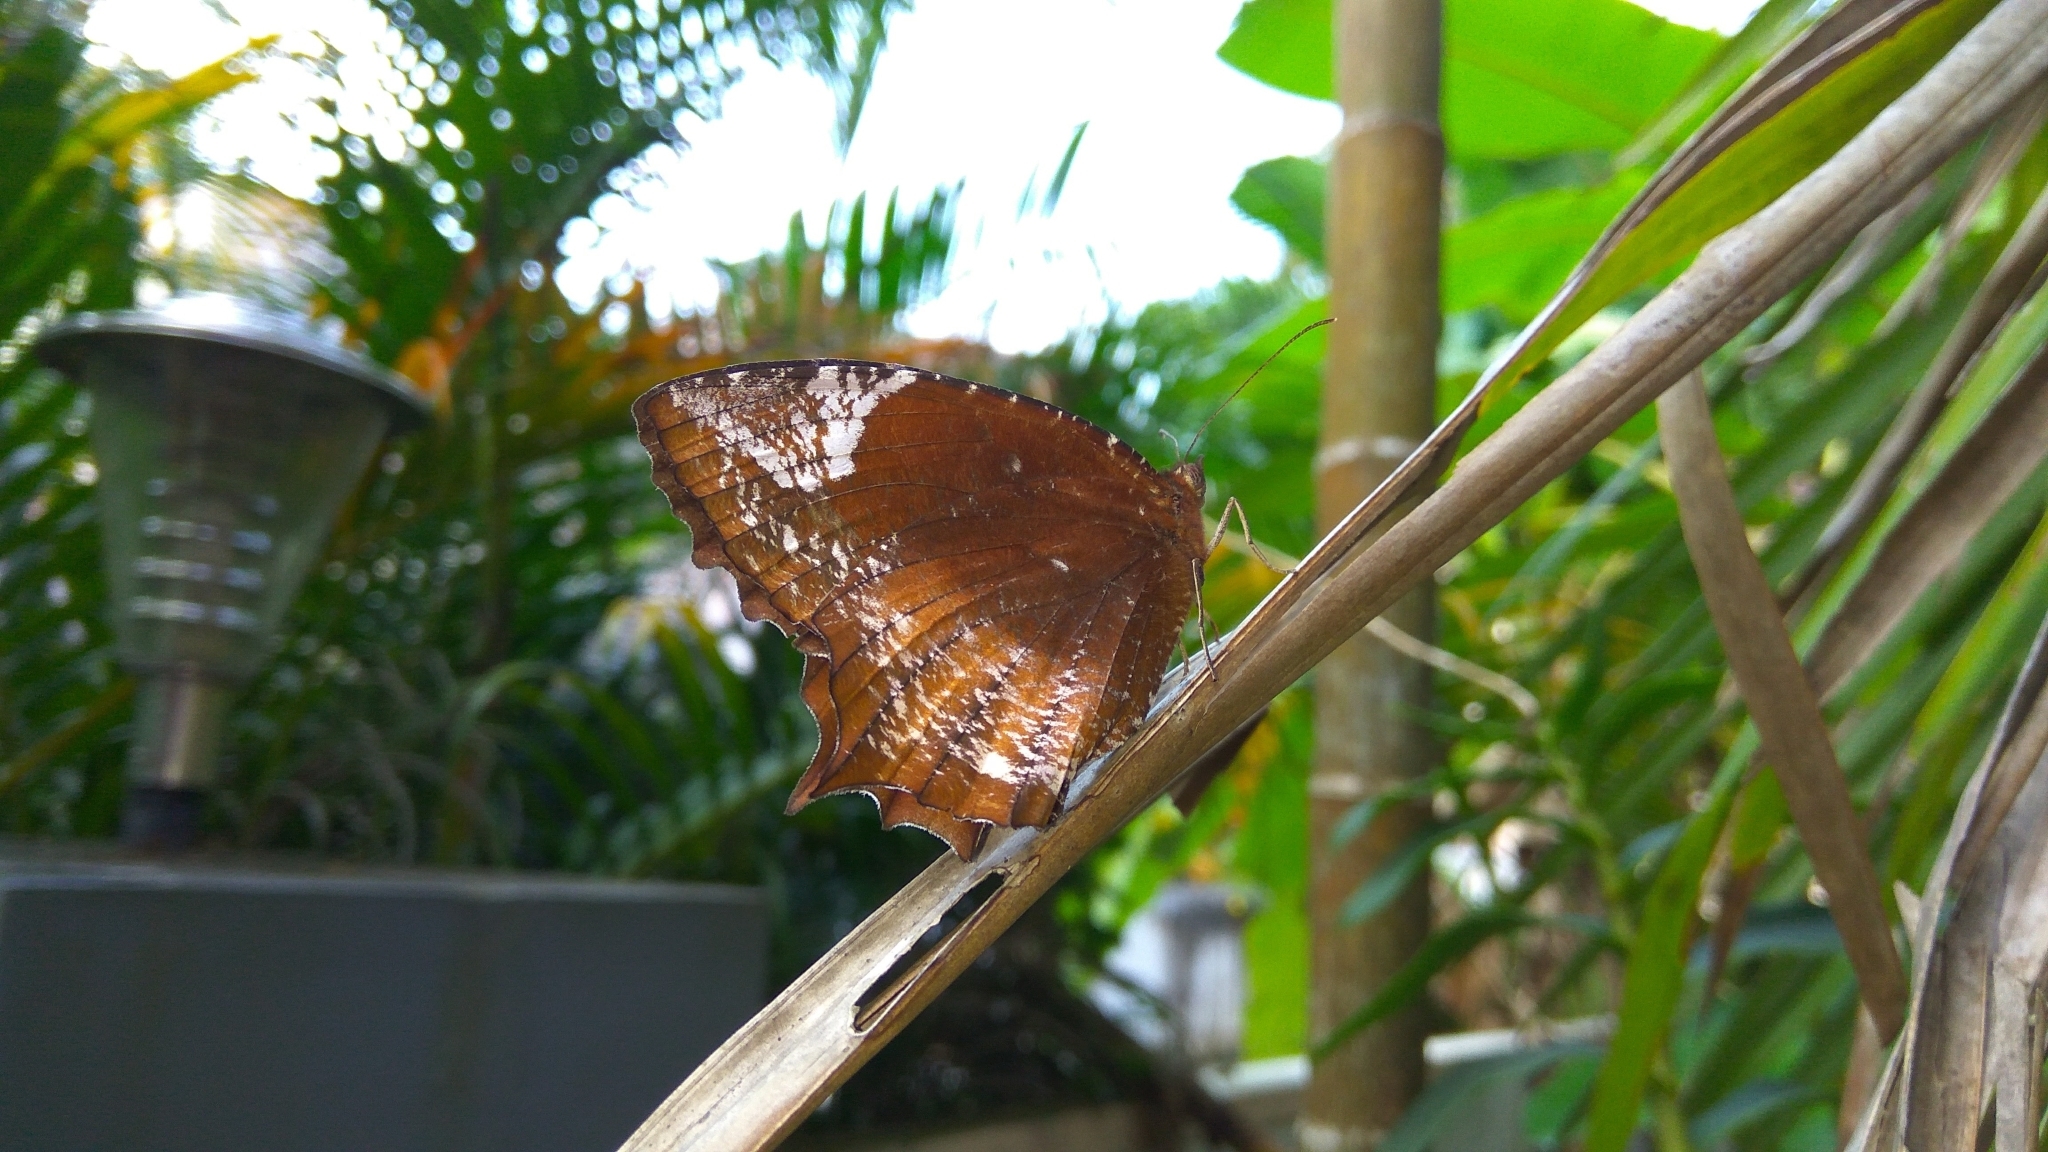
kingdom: Animalia
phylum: Arthropoda
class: Insecta
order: Lepidoptera
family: Nymphalidae
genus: Elymnias
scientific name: Elymnias caudata
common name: Tailed palmfly
